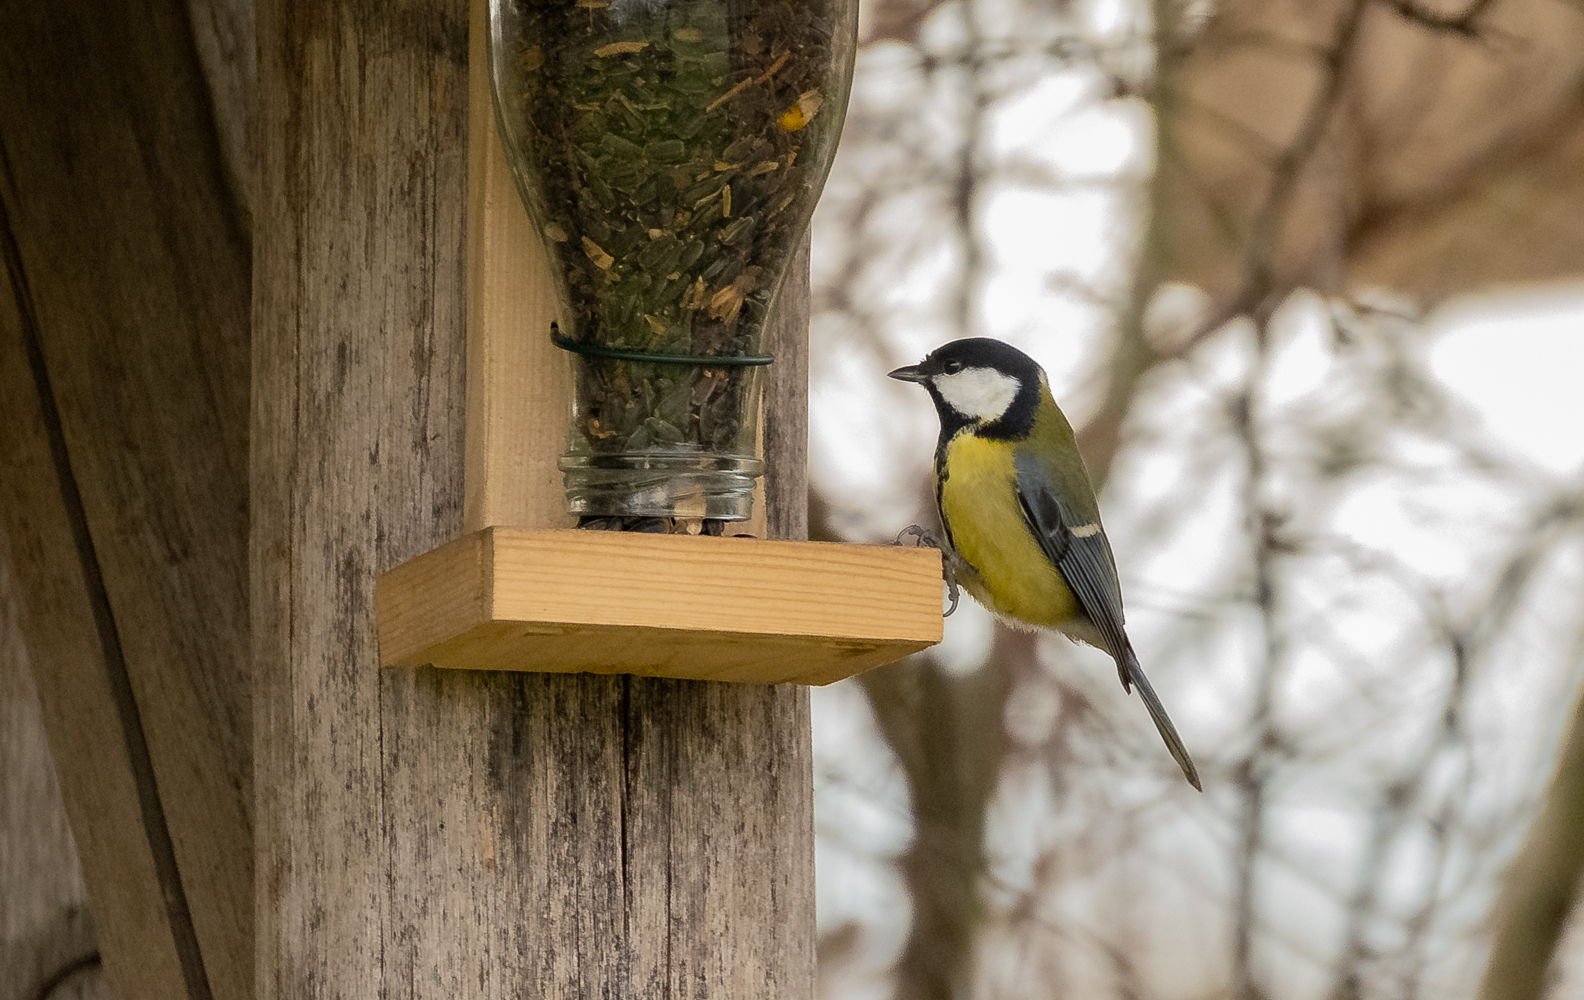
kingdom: Animalia
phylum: Chordata
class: Aves
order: Passeriformes
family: Paridae
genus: Parus
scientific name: Parus major
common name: Great tit
